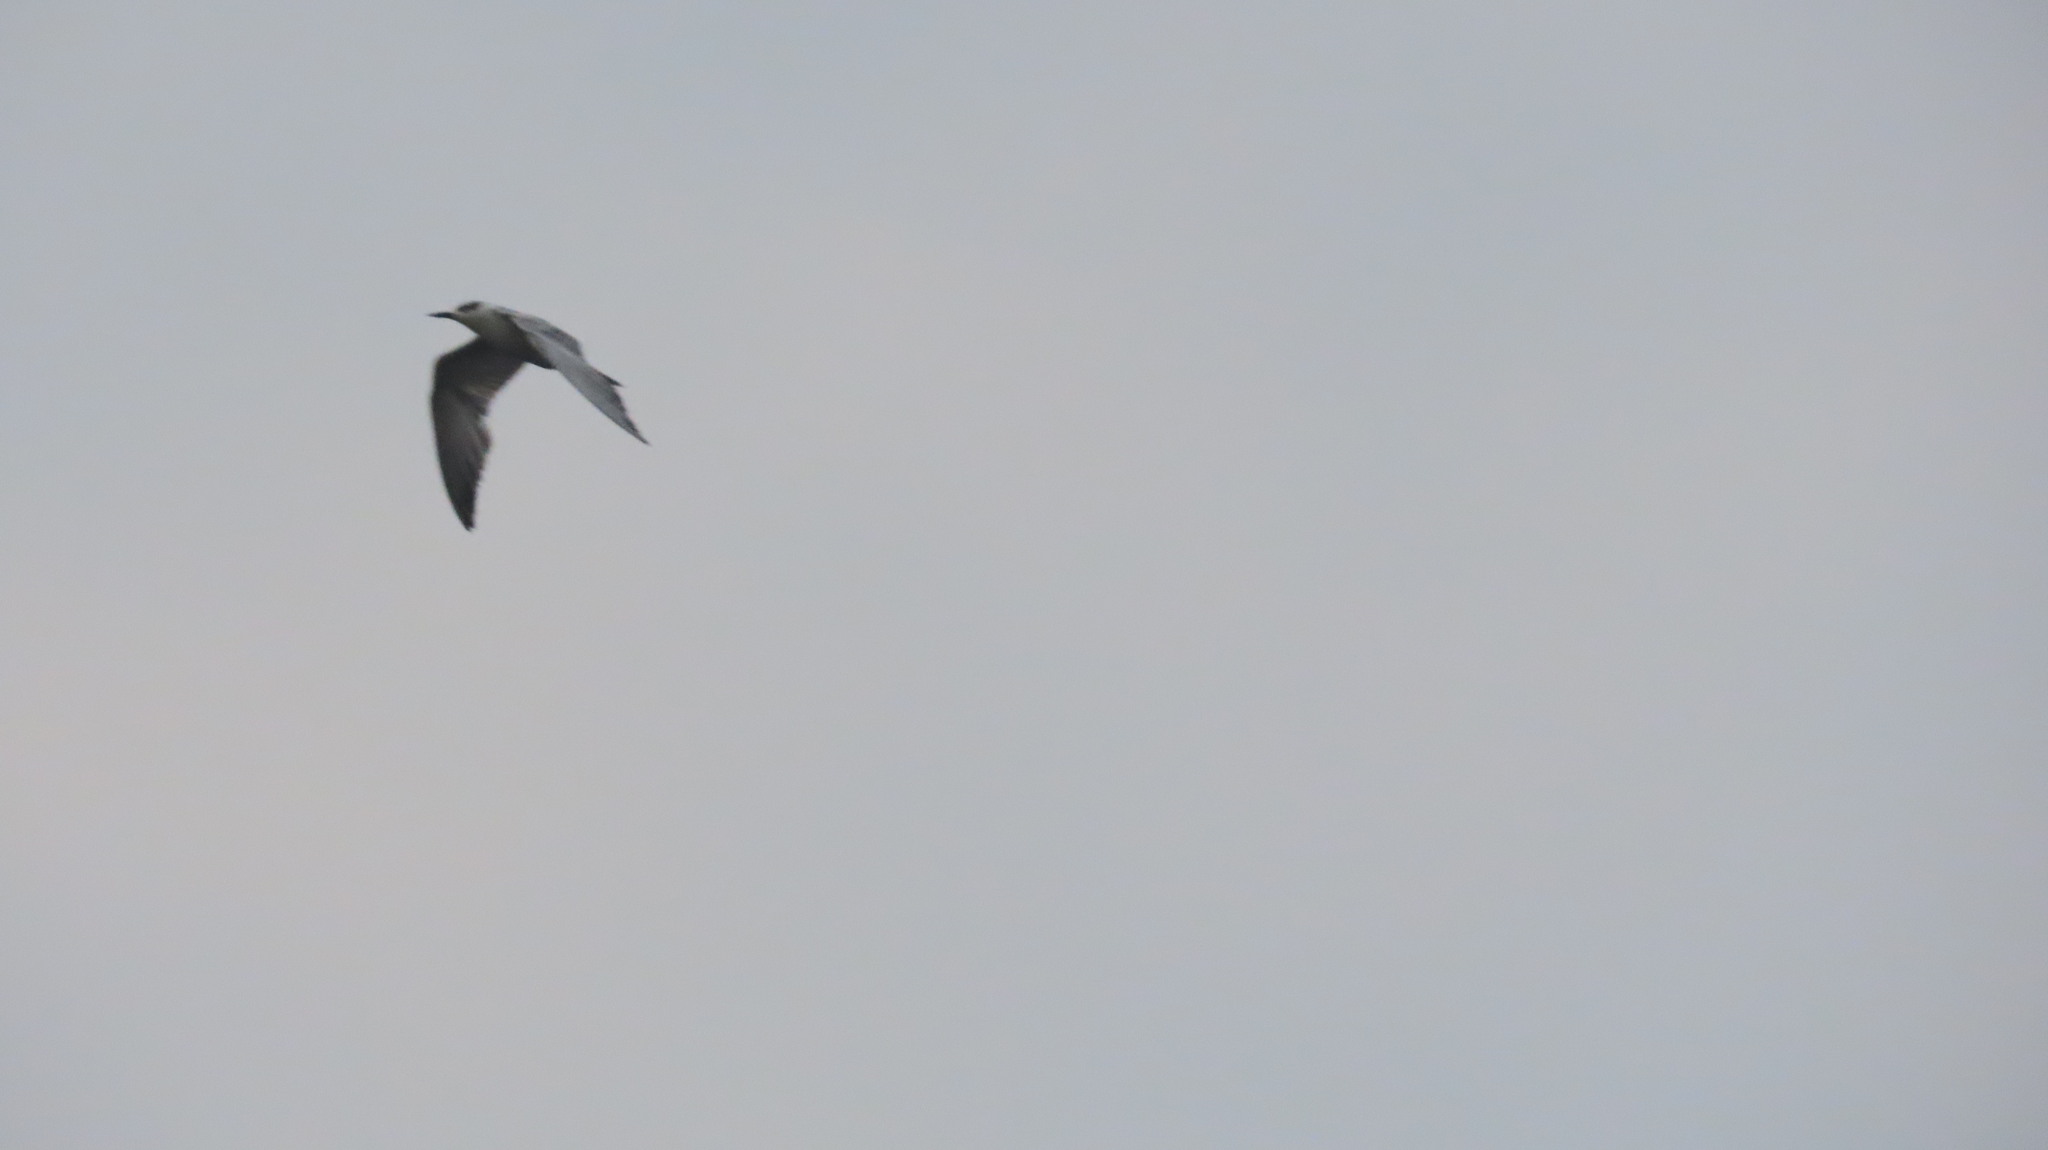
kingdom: Animalia
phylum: Chordata
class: Aves
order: Charadriiformes
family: Laridae
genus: Chlidonias
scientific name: Chlidonias hybrida
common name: Whiskered tern
